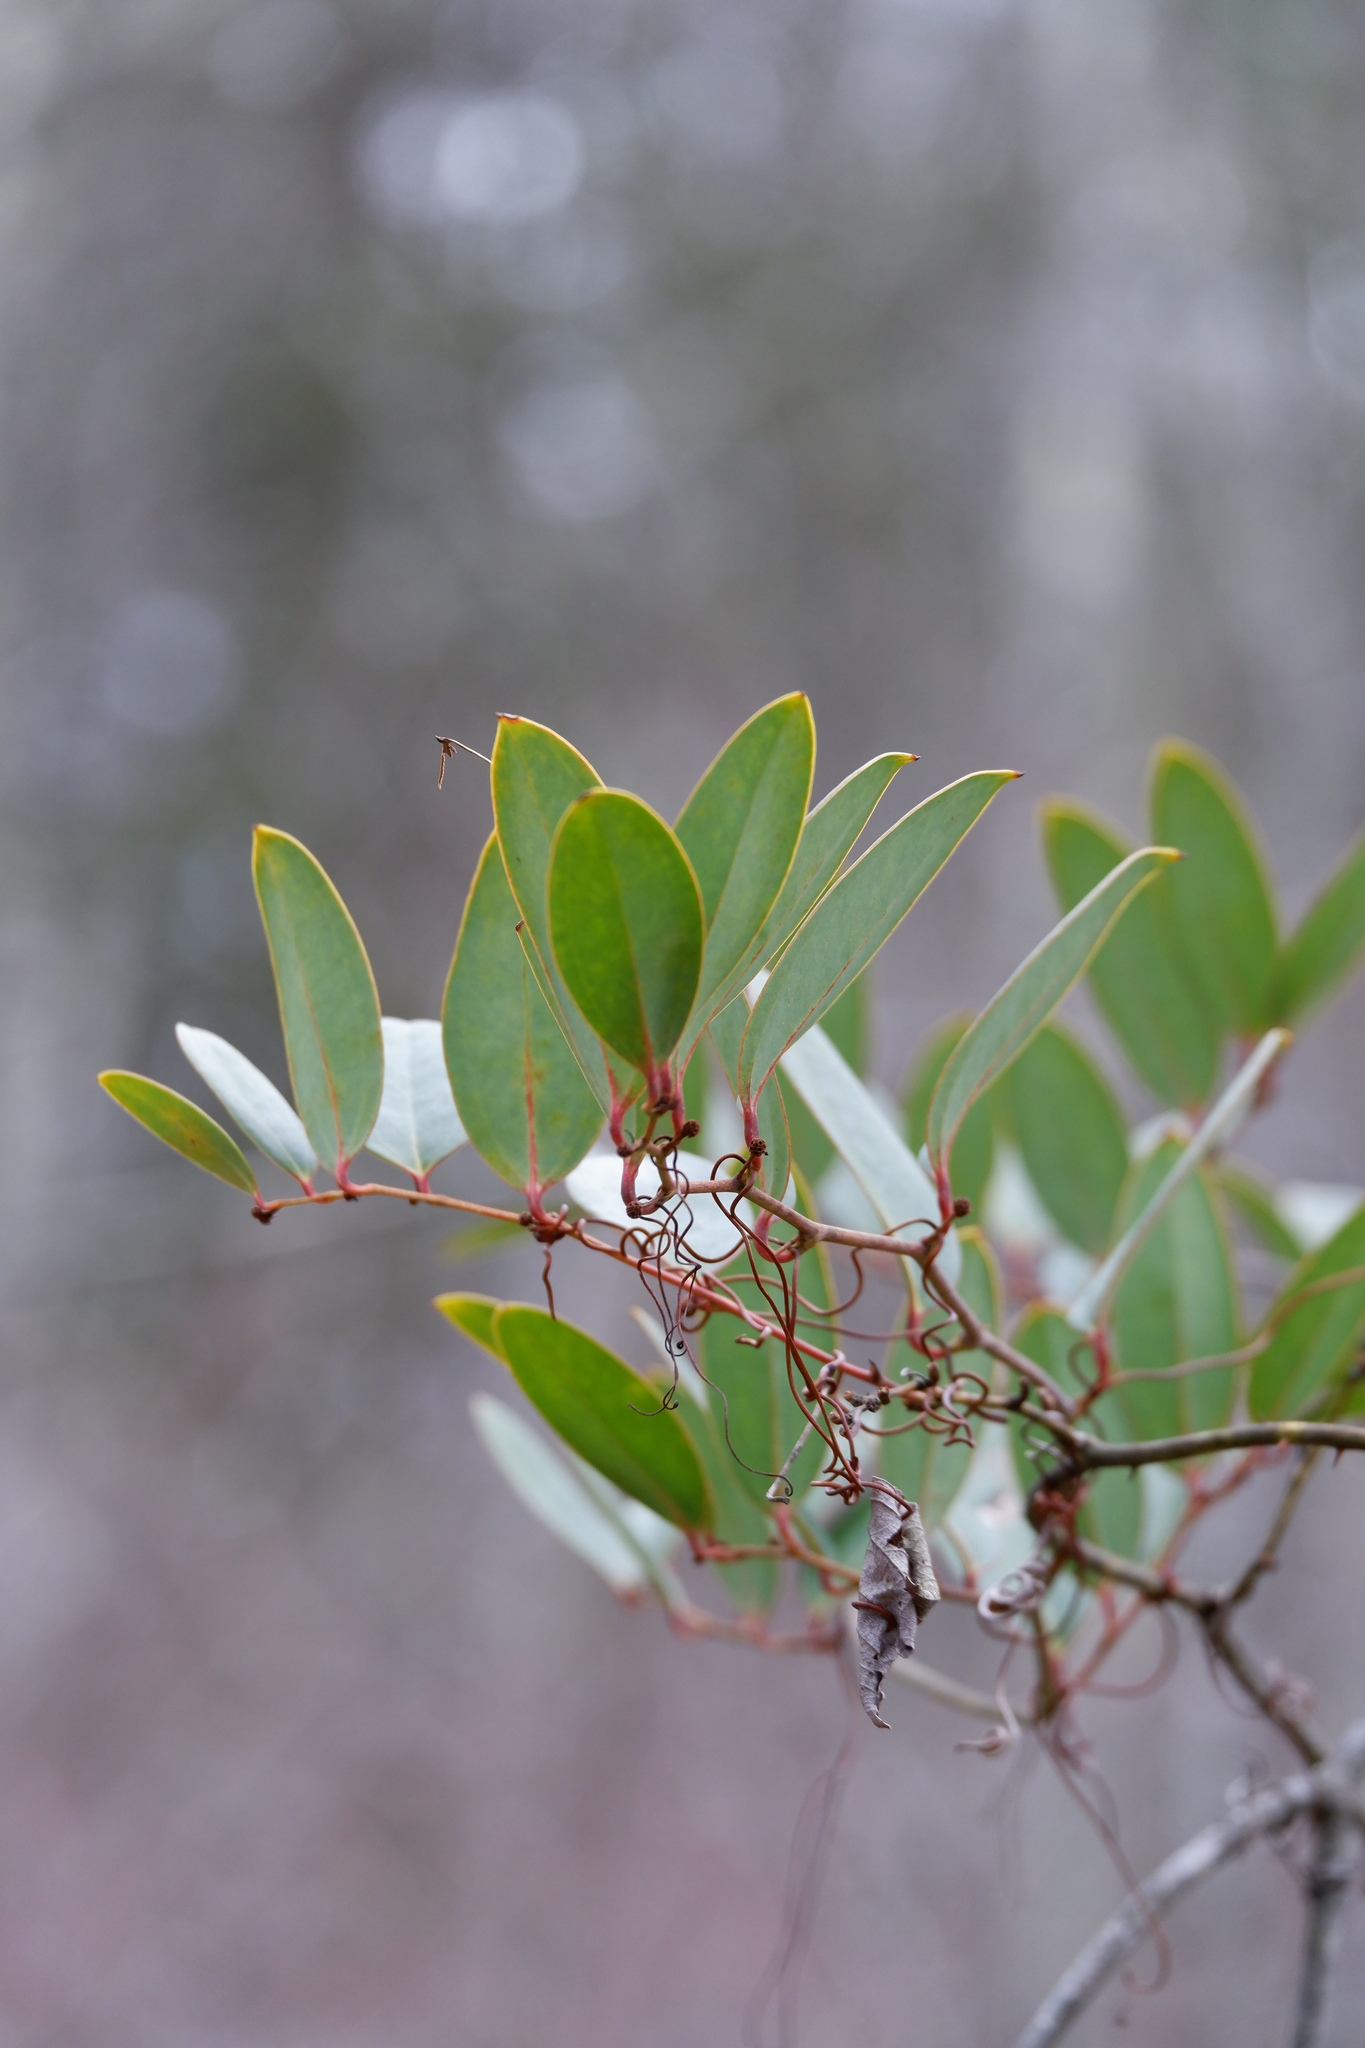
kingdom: Plantae
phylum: Tracheophyta
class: Liliopsida
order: Liliales
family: Smilacaceae
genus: Smilax
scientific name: Smilax laurifolia
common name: Bamboovine
